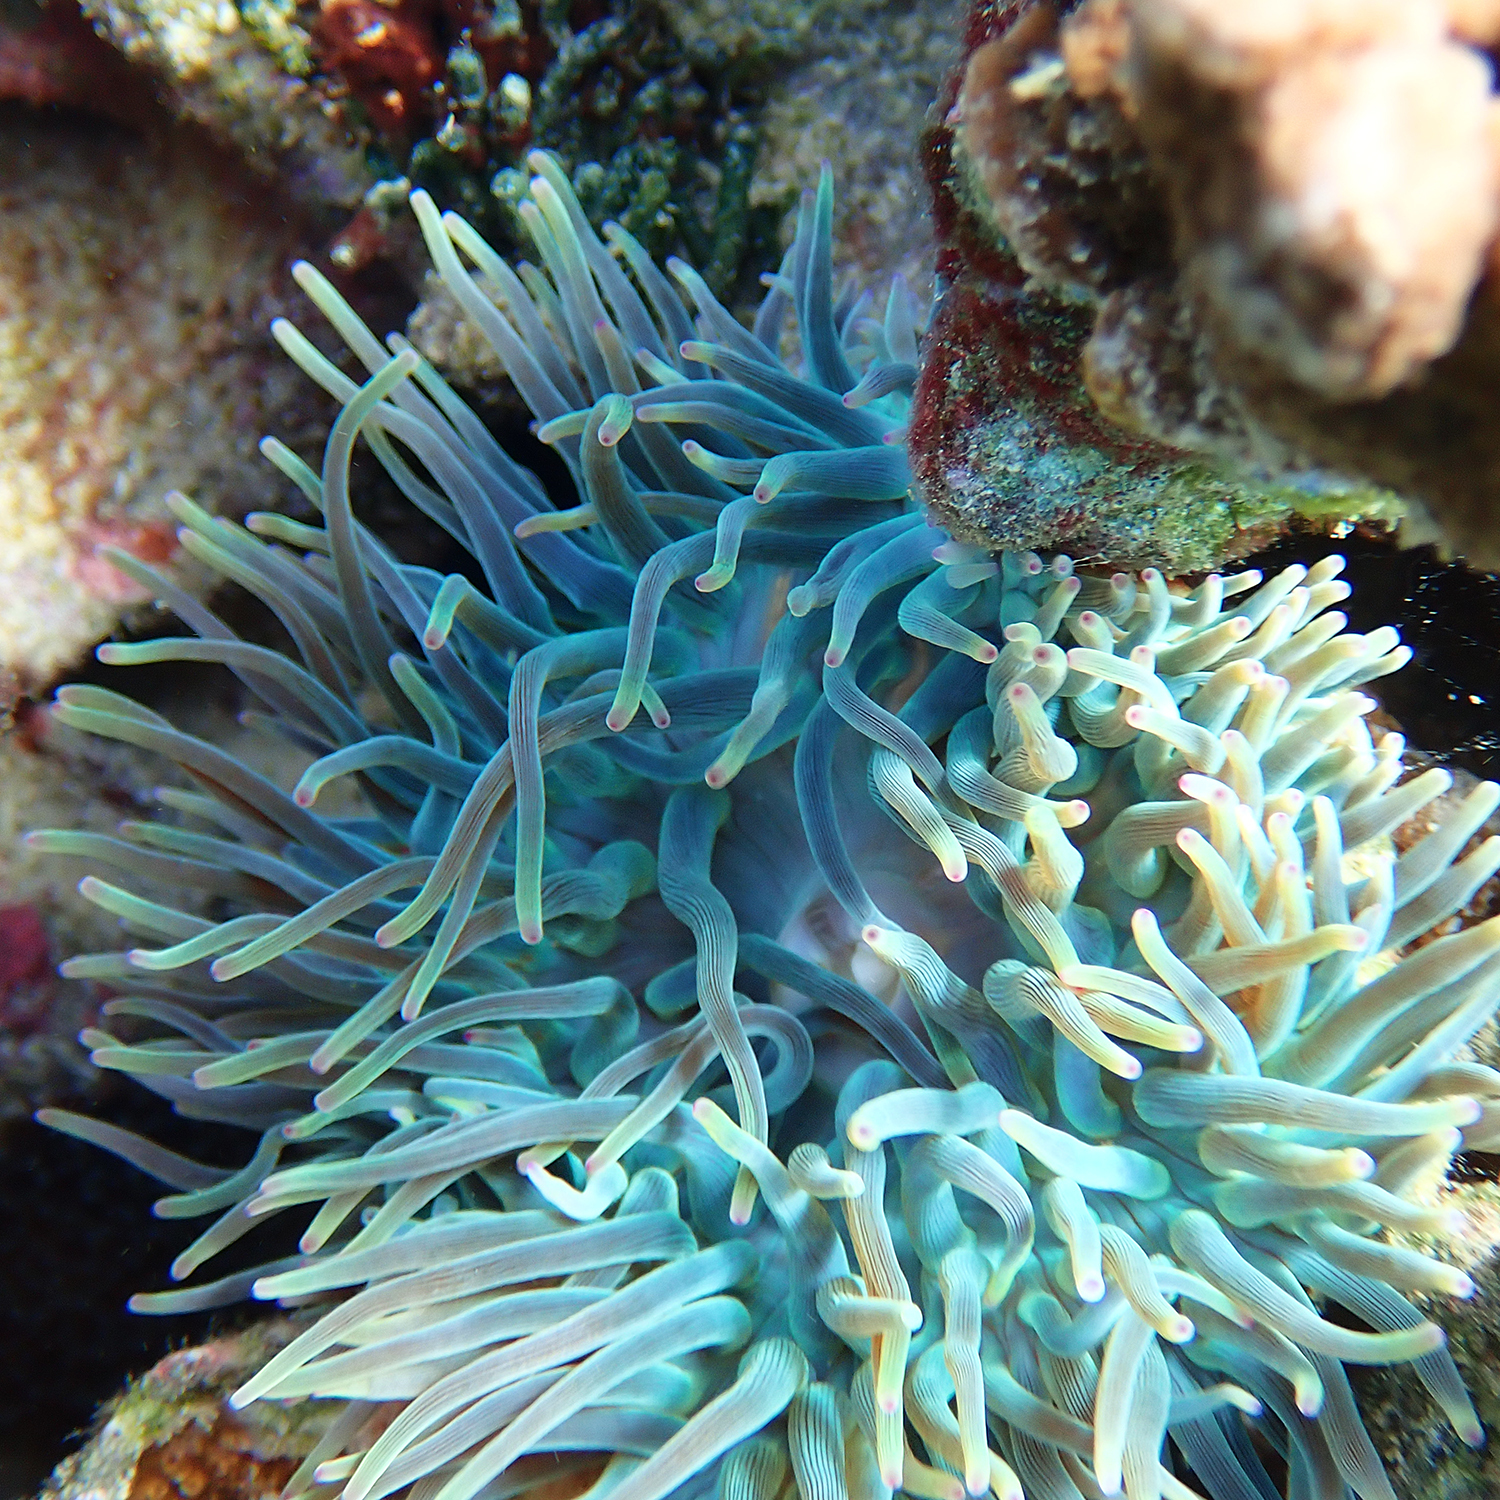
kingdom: Animalia
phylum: Cnidaria
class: Anthozoa
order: Actiniaria
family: Actiniidae
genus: Entacmaea
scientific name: Entacmaea quadricolor
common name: Bulb tentacle sea anemone
